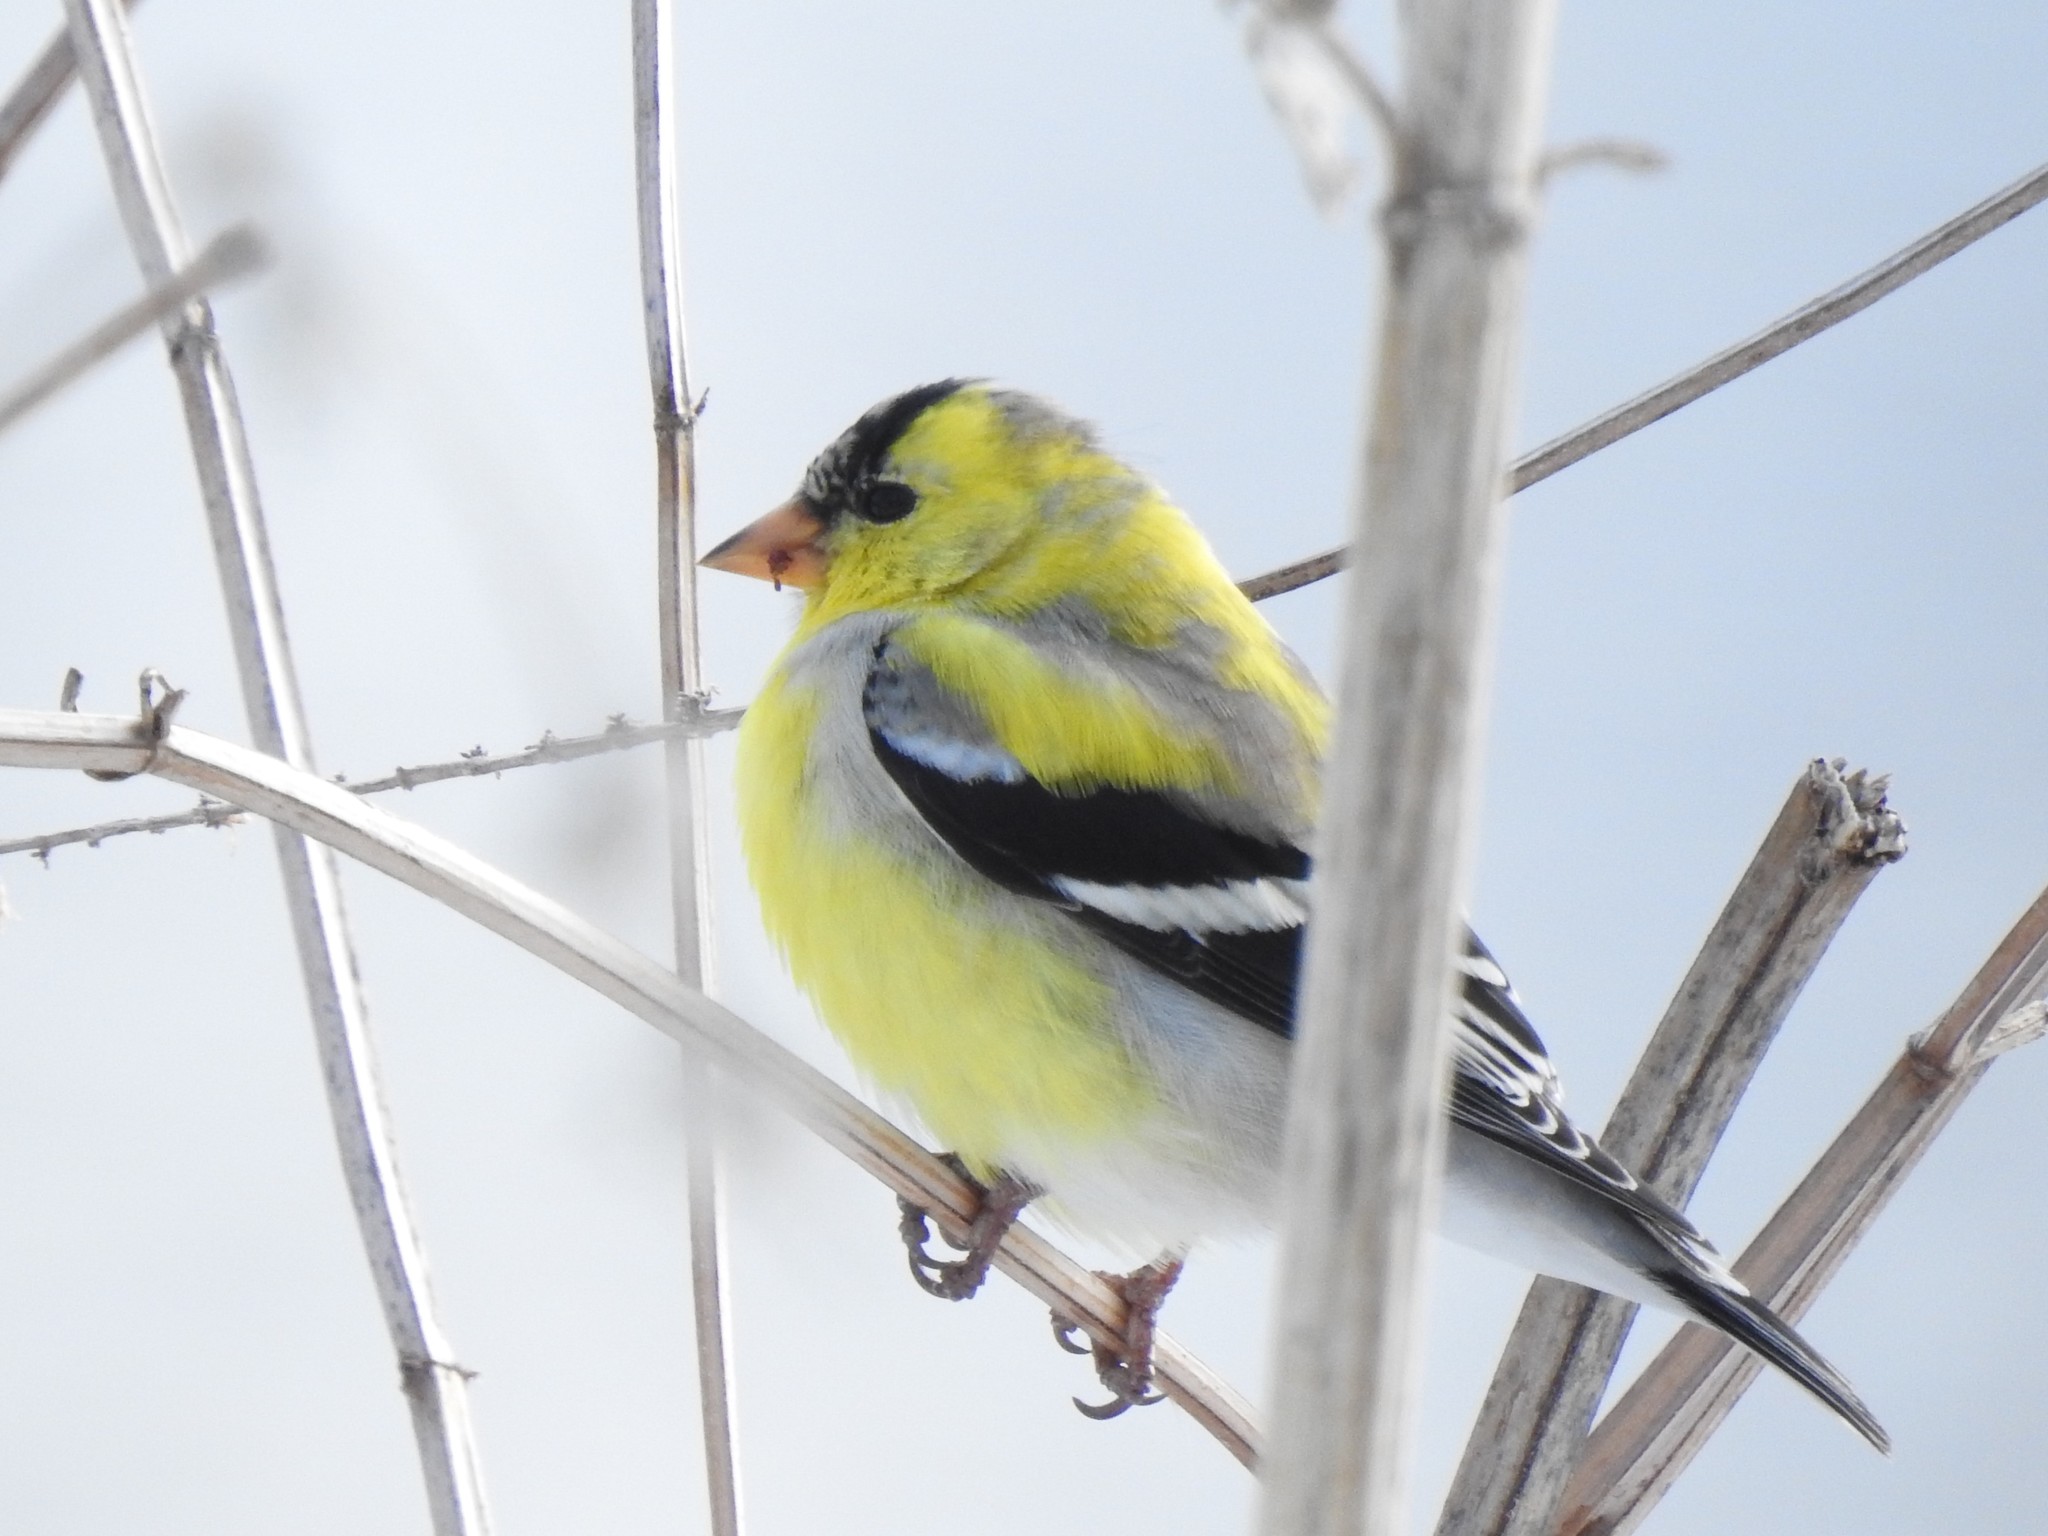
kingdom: Animalia
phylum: Chordata
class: Aves
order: Passeriformes
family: Fringillidae
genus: Spinus
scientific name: Spinus tristis
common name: American goldfinch
